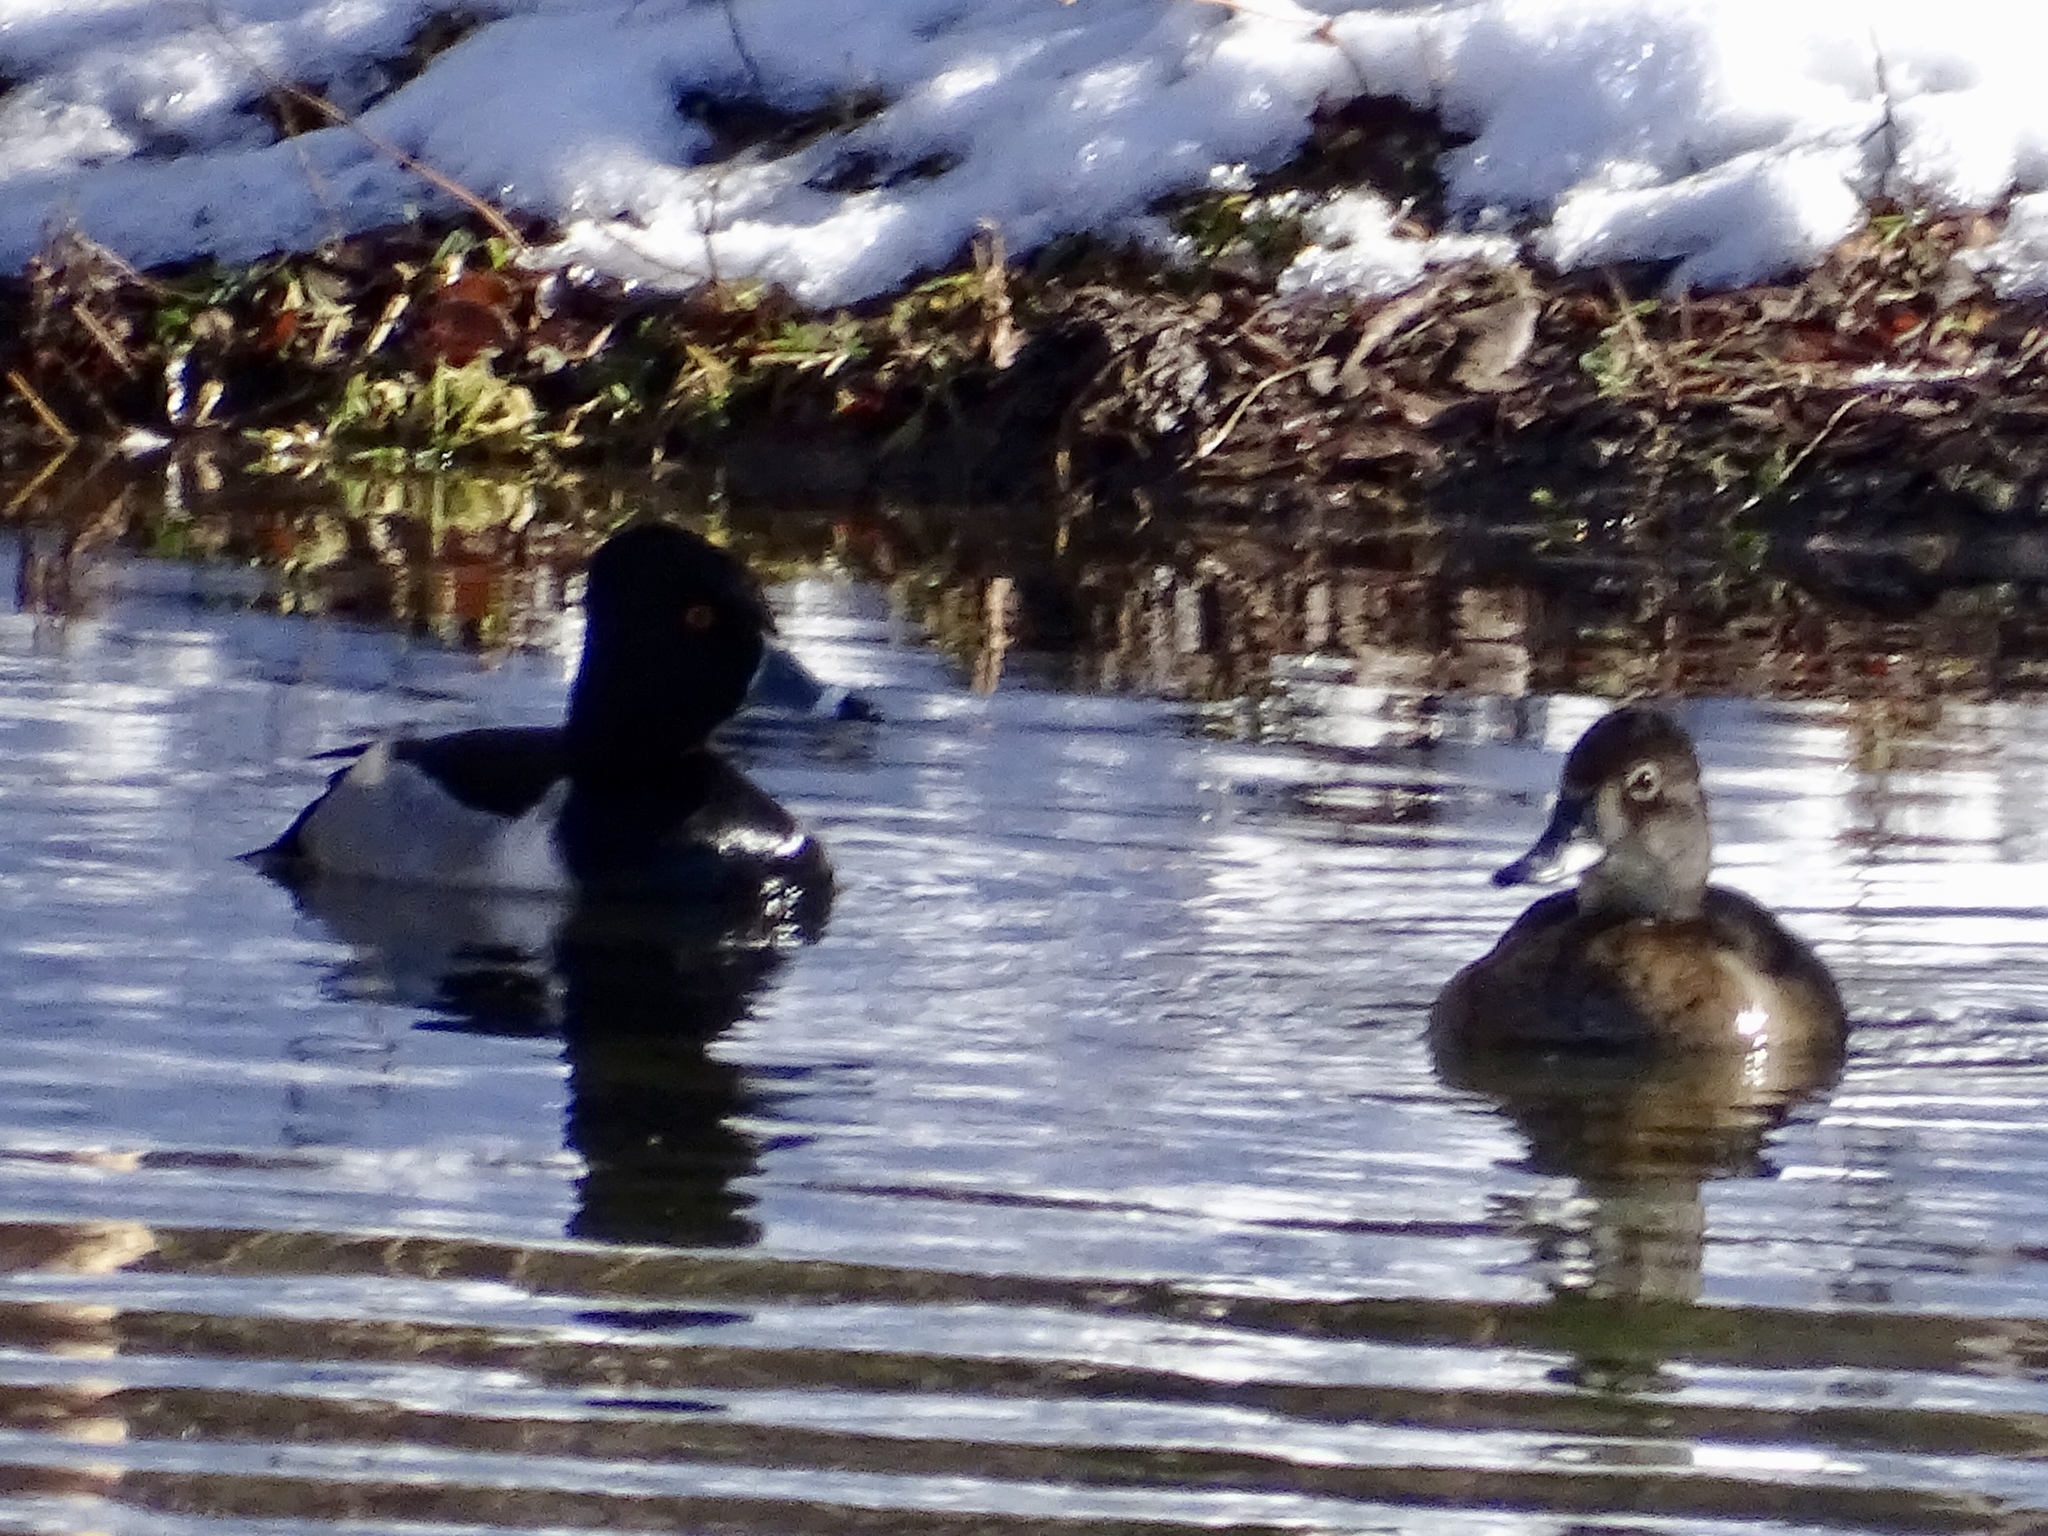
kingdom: Animalia
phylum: Chordata
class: Aves
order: Anseriformes
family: Anatidae
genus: Aythya
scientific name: Aythya collaris
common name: Ring-necked duck
